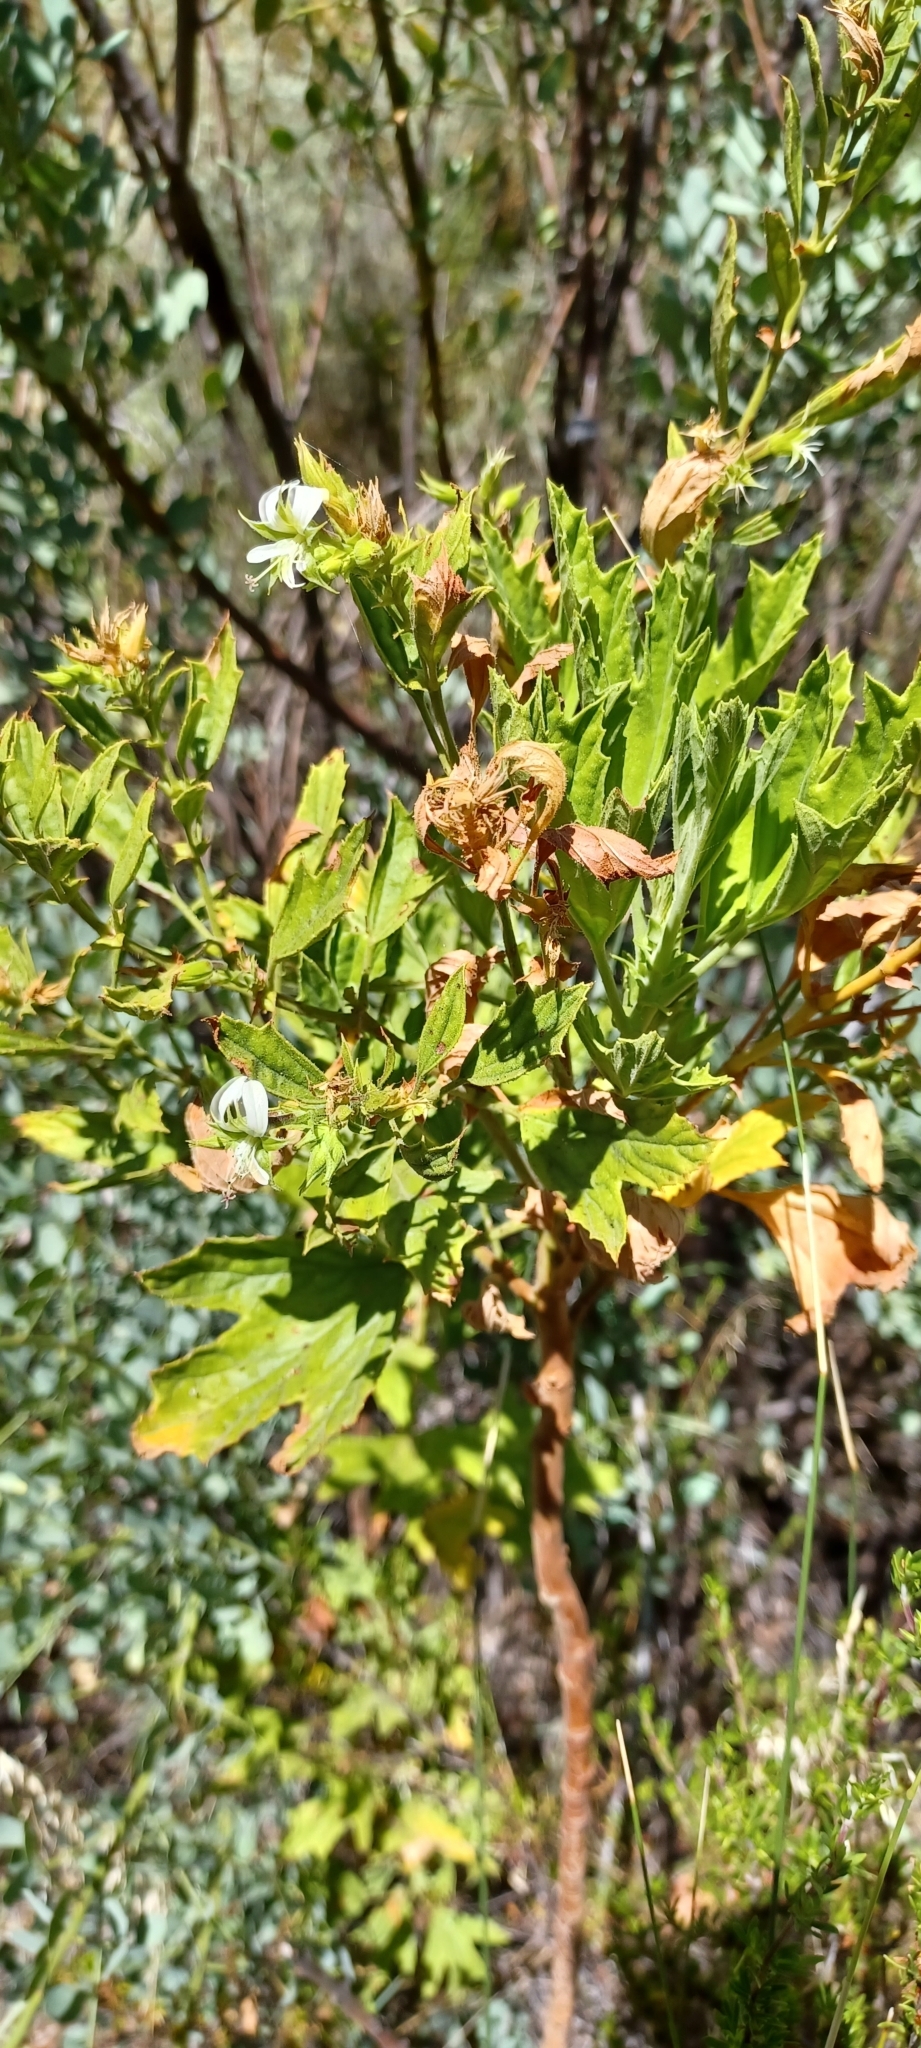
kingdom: Plantae
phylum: Tracheophyta
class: Magnoliopsida
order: Geraniales
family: Geraniaceae
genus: Pelargonium
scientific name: Pelargonium scabrum
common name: Apricot geranium
